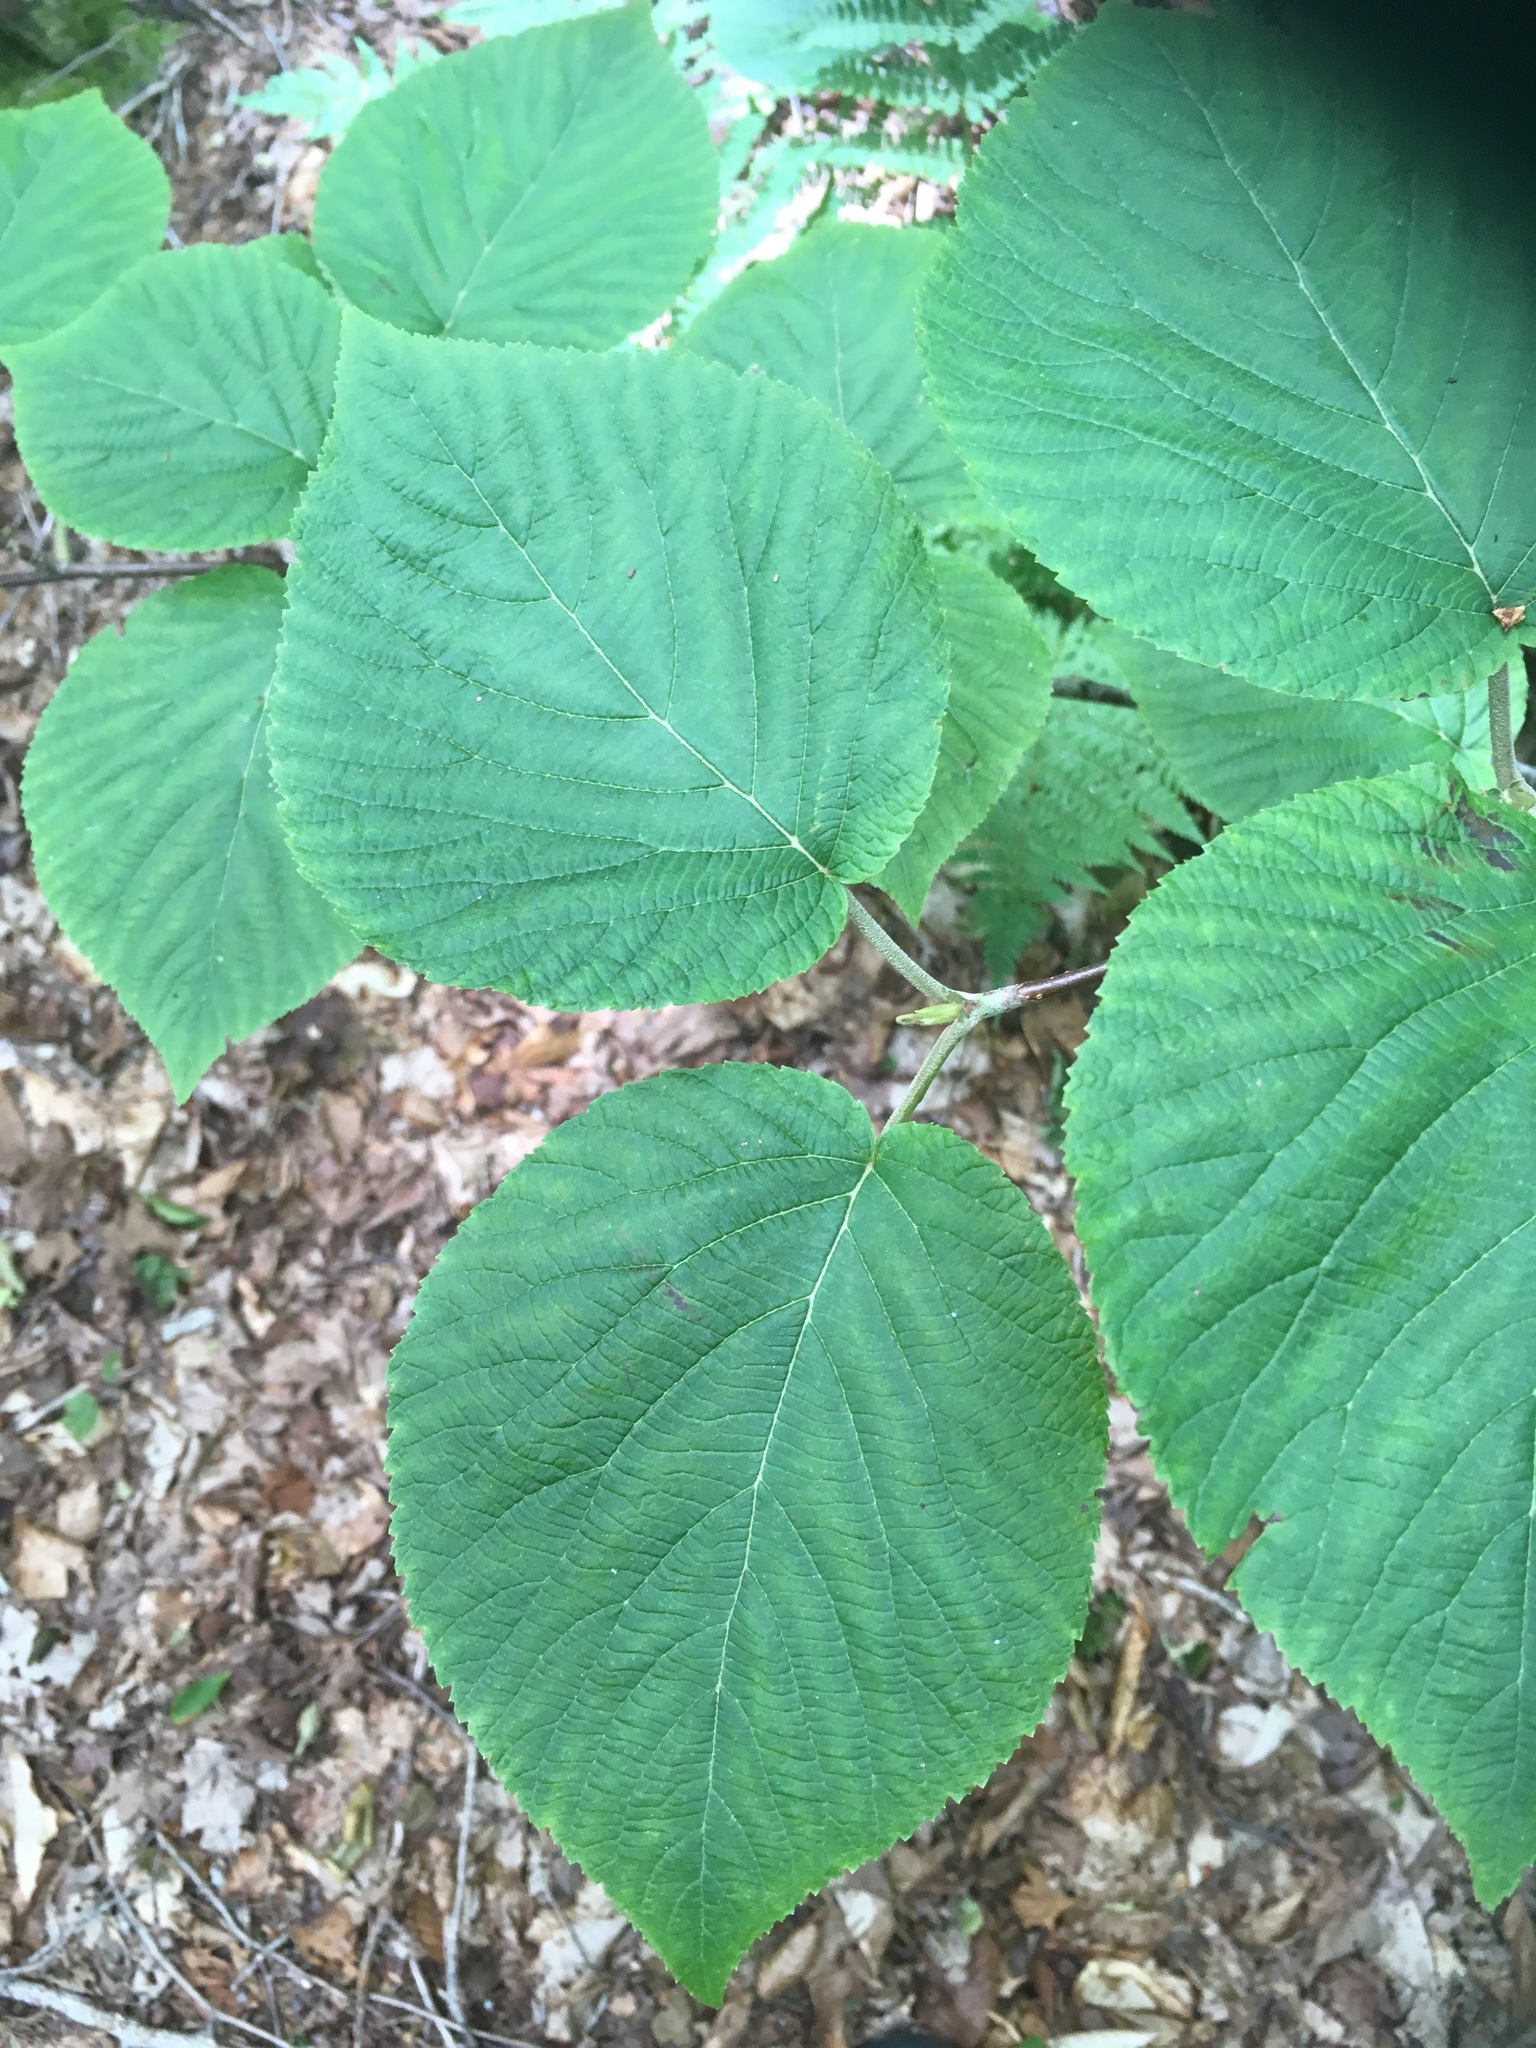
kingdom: Plantae
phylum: Tracheophyta
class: Magnoliopsida
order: Dipsacales
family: Viburnaceae
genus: Viburnum
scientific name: Viburnum lantanoides
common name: Hobblebush
